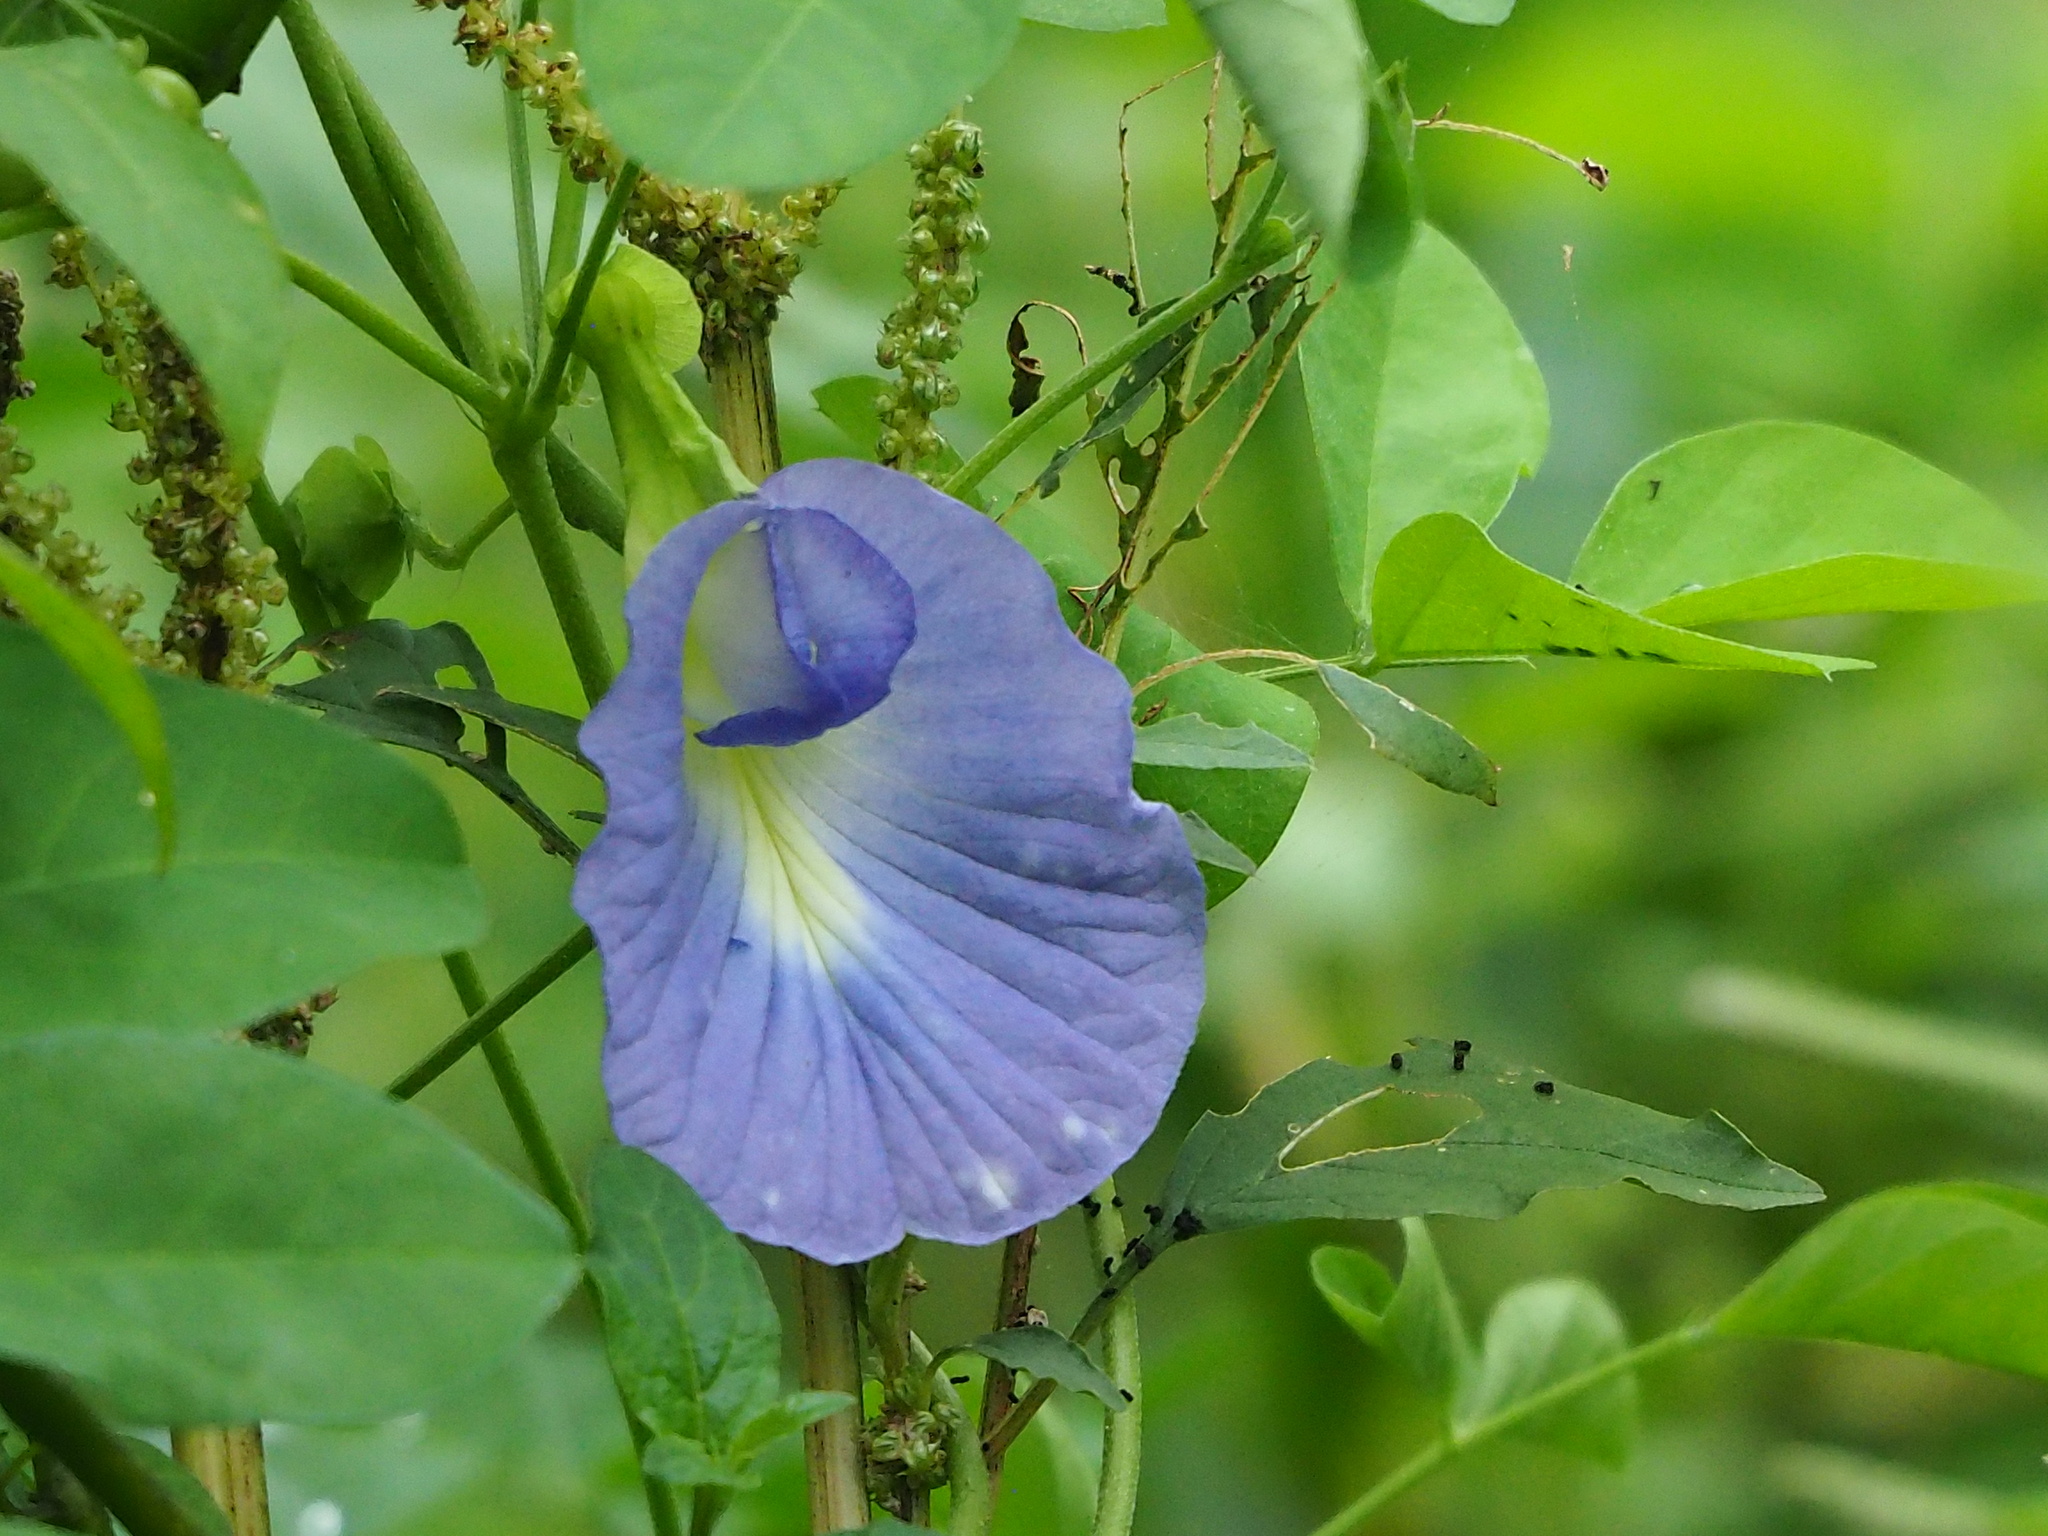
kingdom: Plantae
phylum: Tracheophyta
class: Magnoliopsida
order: Fabales
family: Fabaceae
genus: Clitoria
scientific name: Clitoria ternatea
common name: Asian pigeonwings
